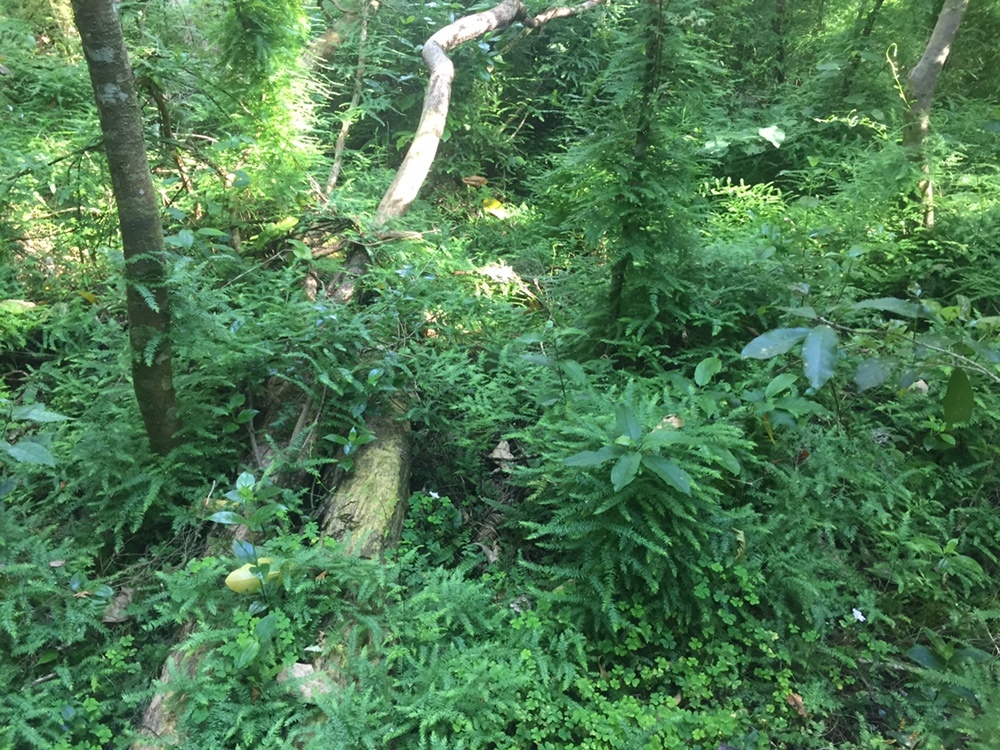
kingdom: Plantae
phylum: Tracheophyta
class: Liliopsida
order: Asparagales
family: Asparagaceae
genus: Asparagus
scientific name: Asparagus scandens
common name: Asparagus-fern
